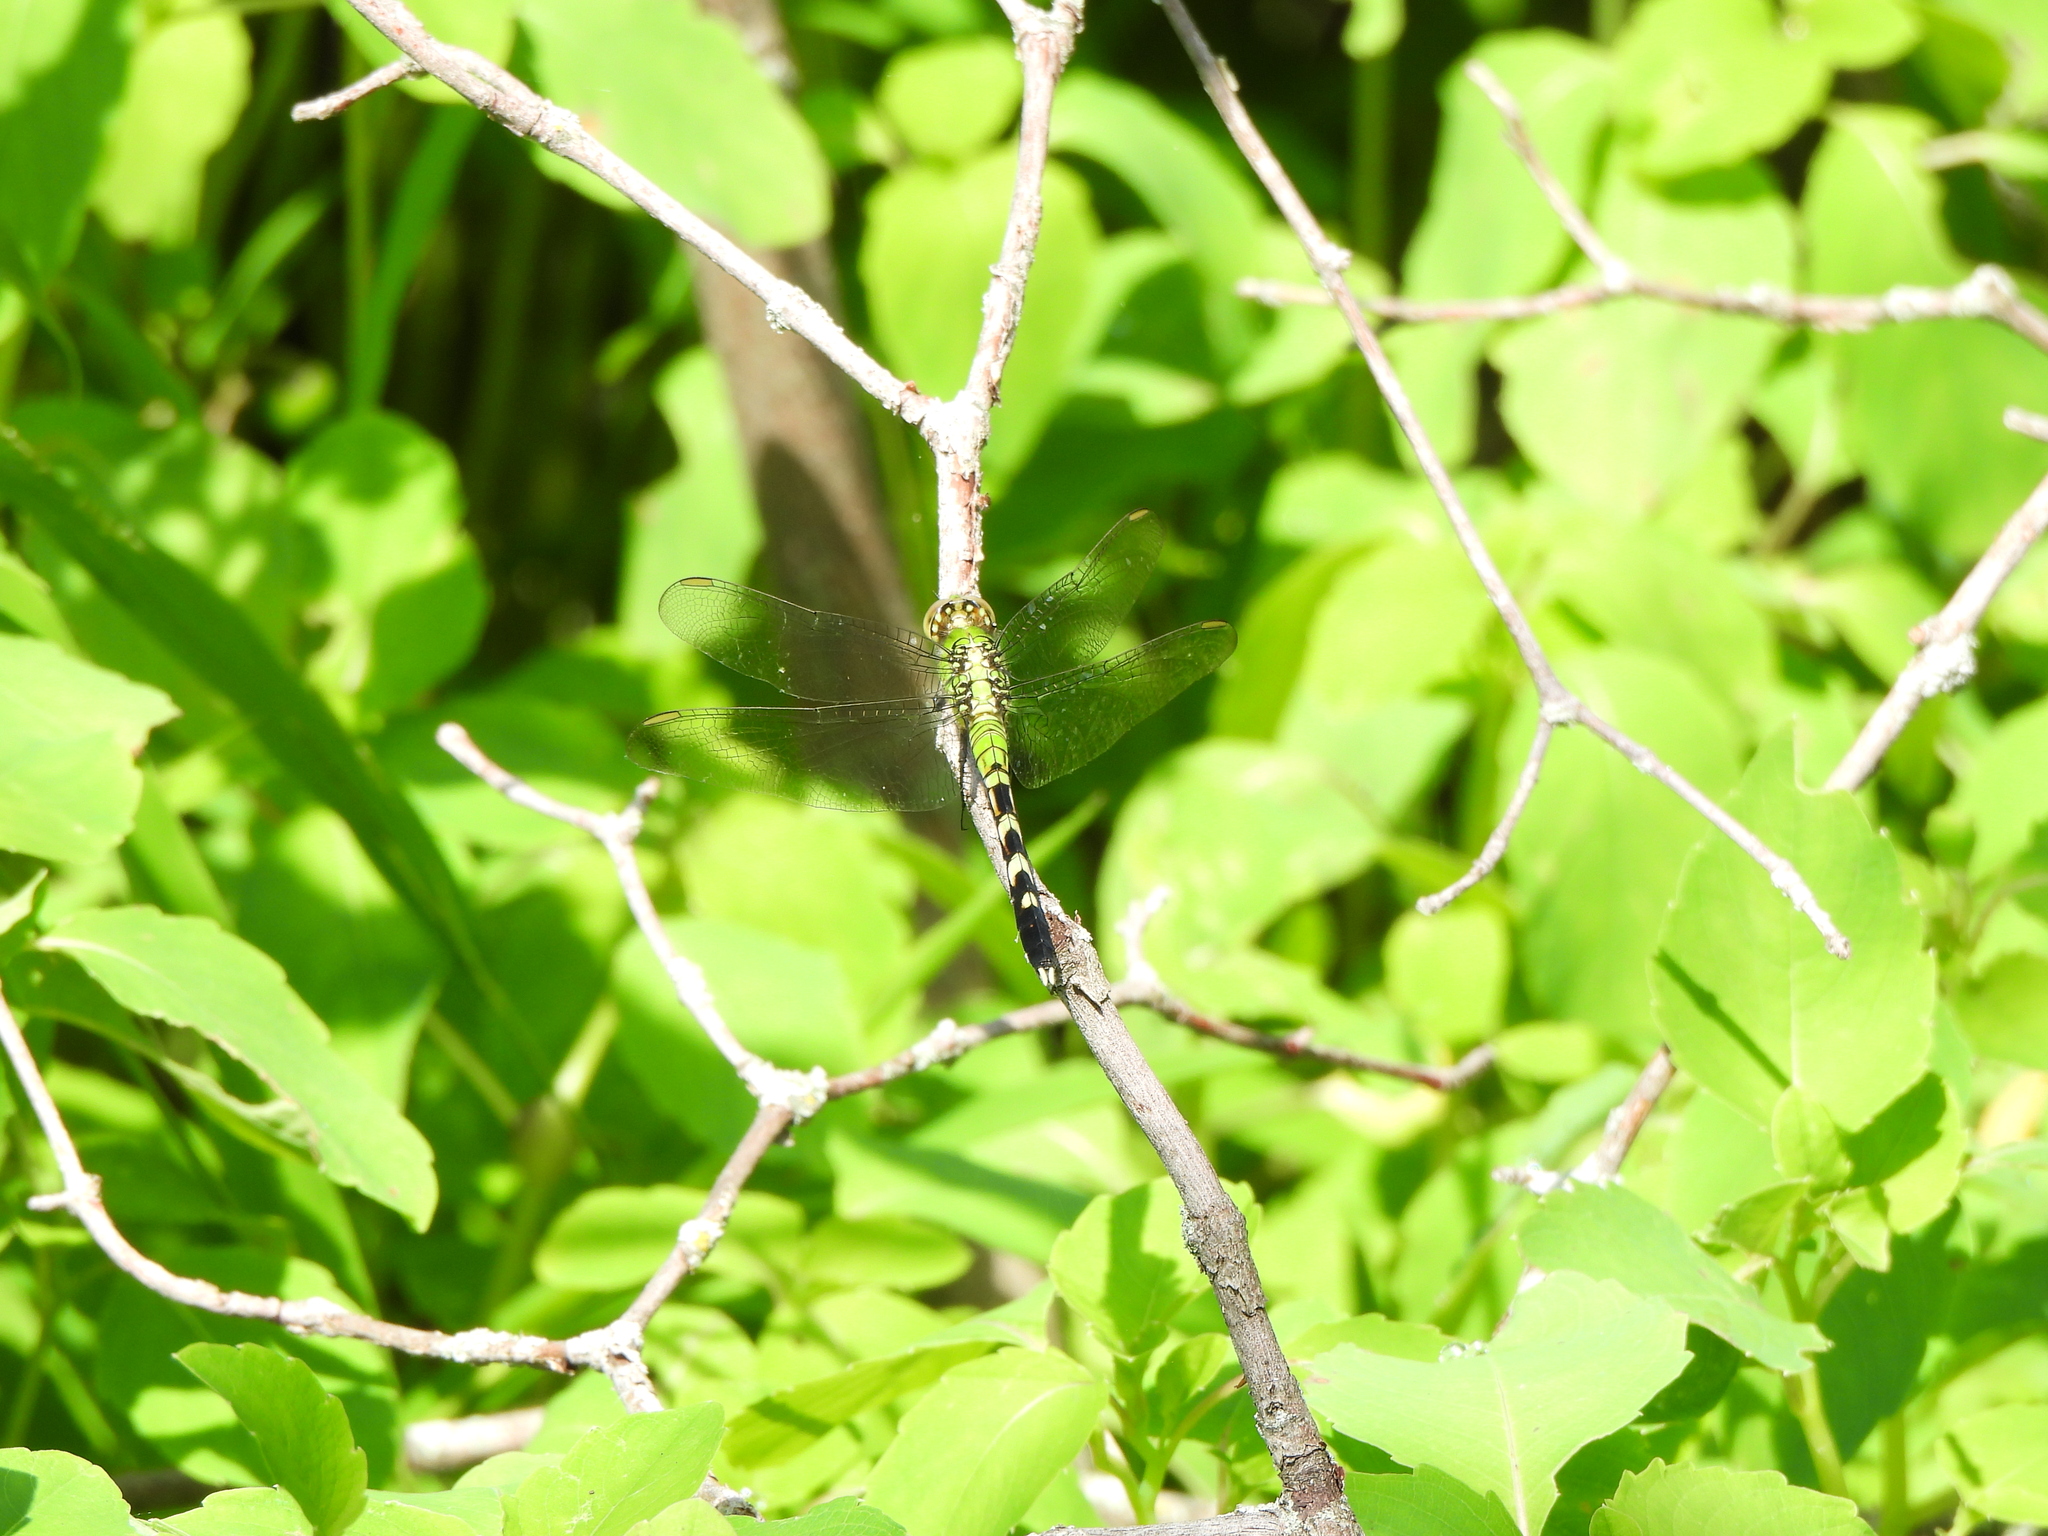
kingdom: Animalia
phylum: Arthropoda
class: Insecta
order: Odonata
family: Libellulidae
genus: Erythemis
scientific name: Erythemis simplicicollis
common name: Eastern pondhawk
